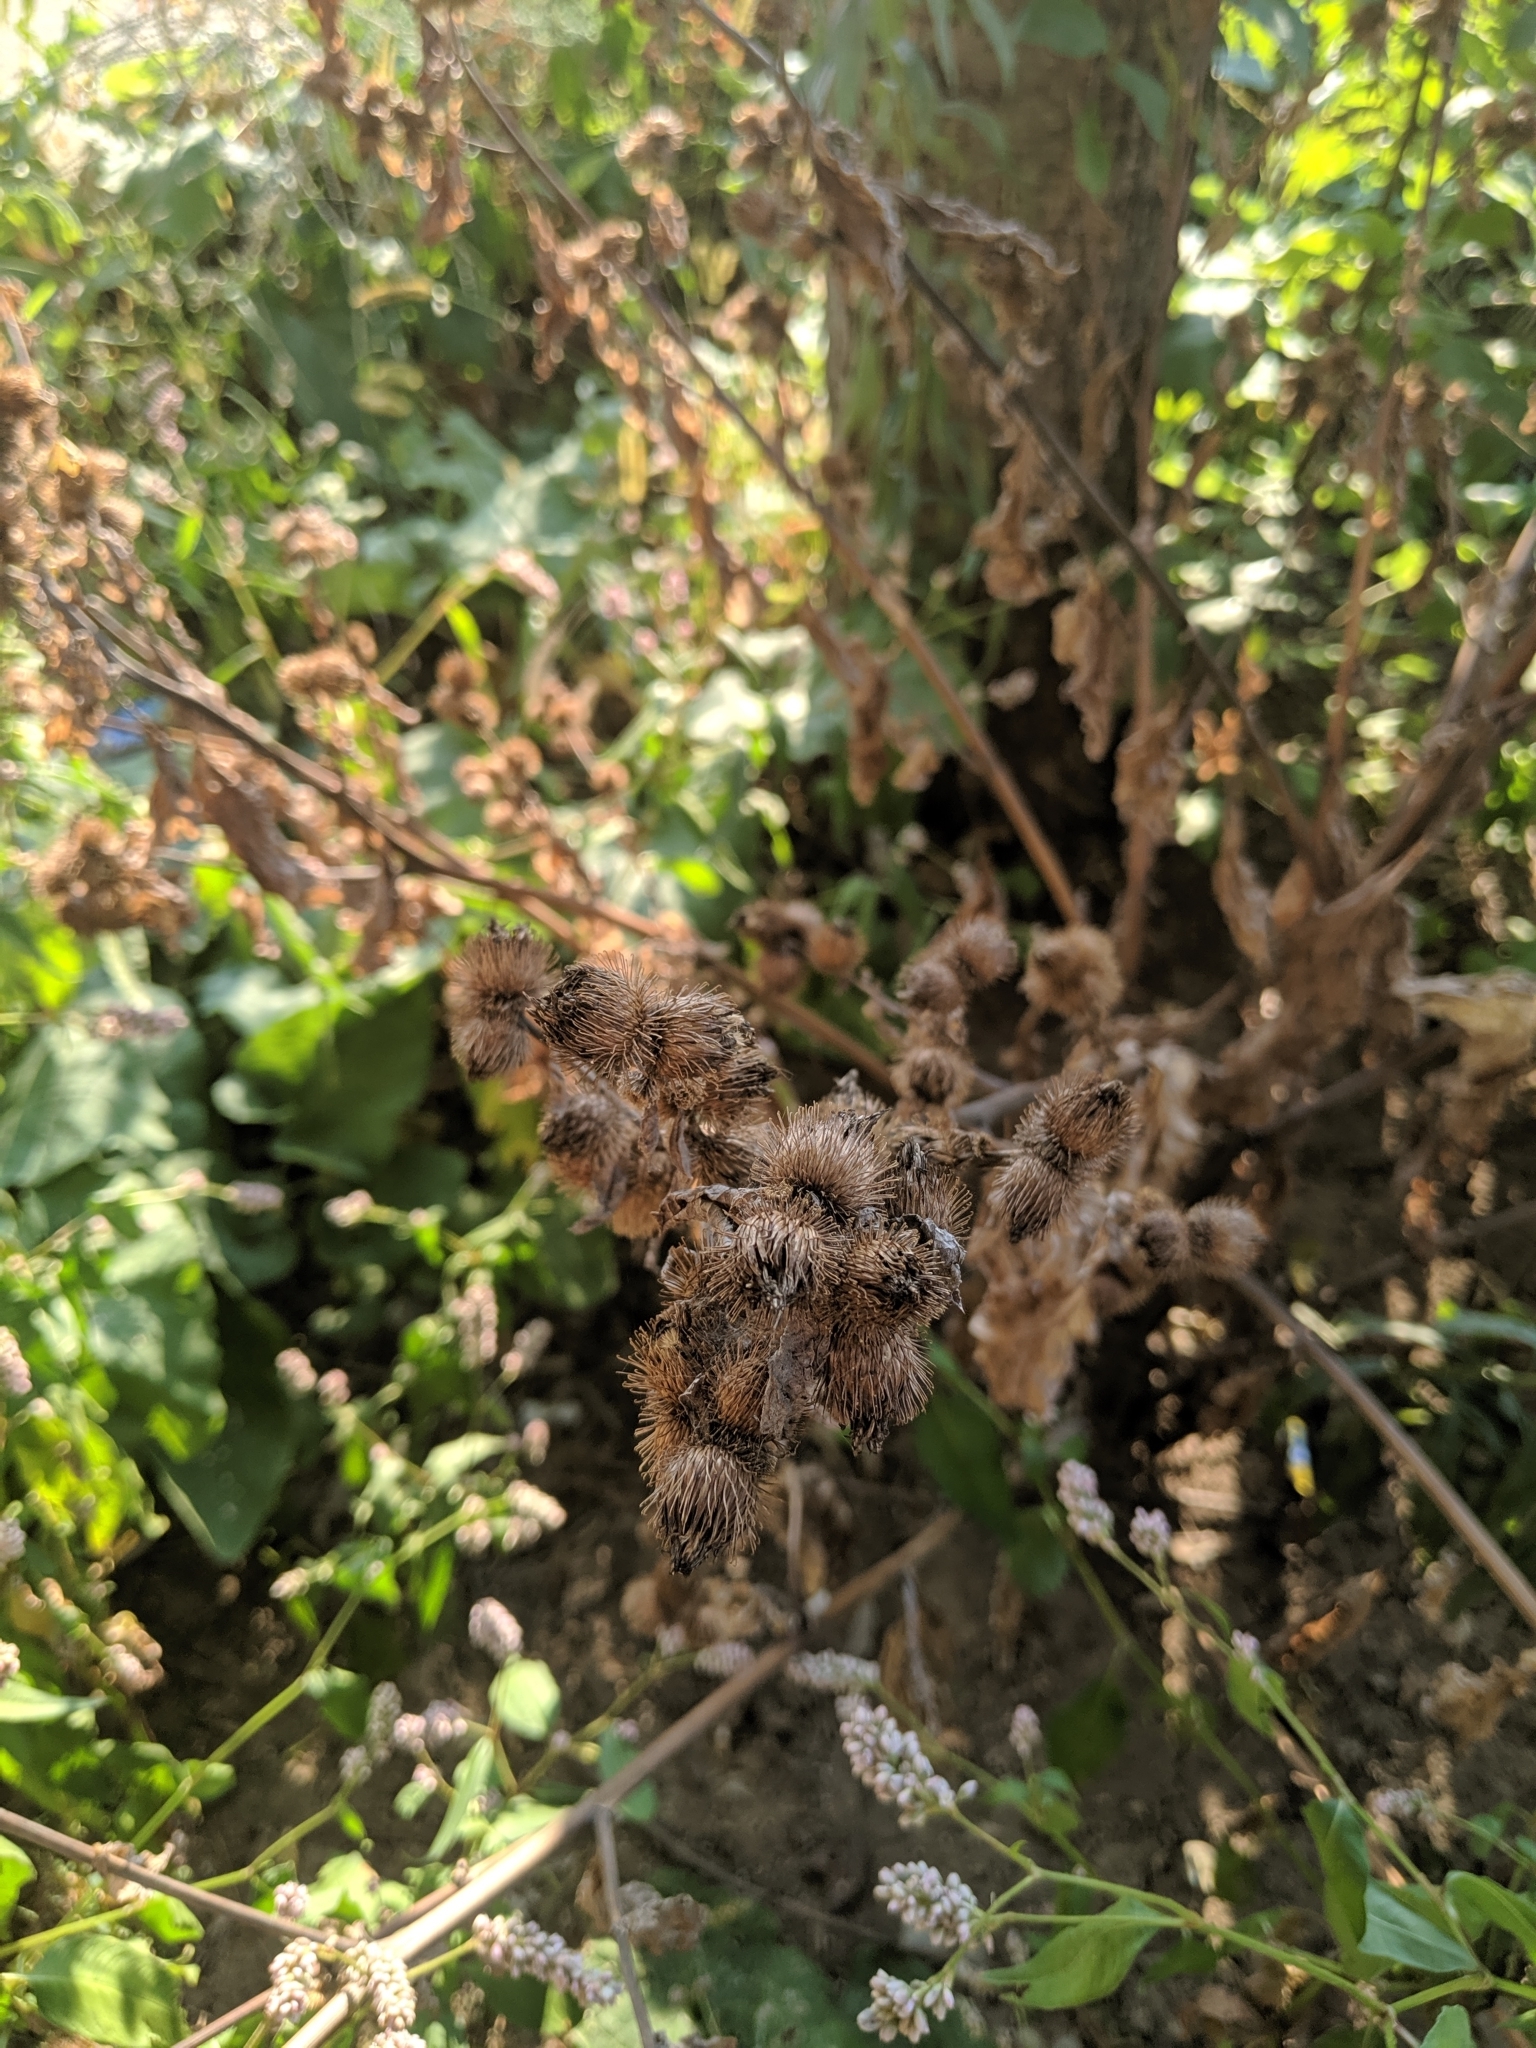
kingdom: Plantae
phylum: Tracheophyta
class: Magnoliopsida
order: Asterales
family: Asteraceae
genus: Arctium
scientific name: Arctium minus
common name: Lesser burdock
